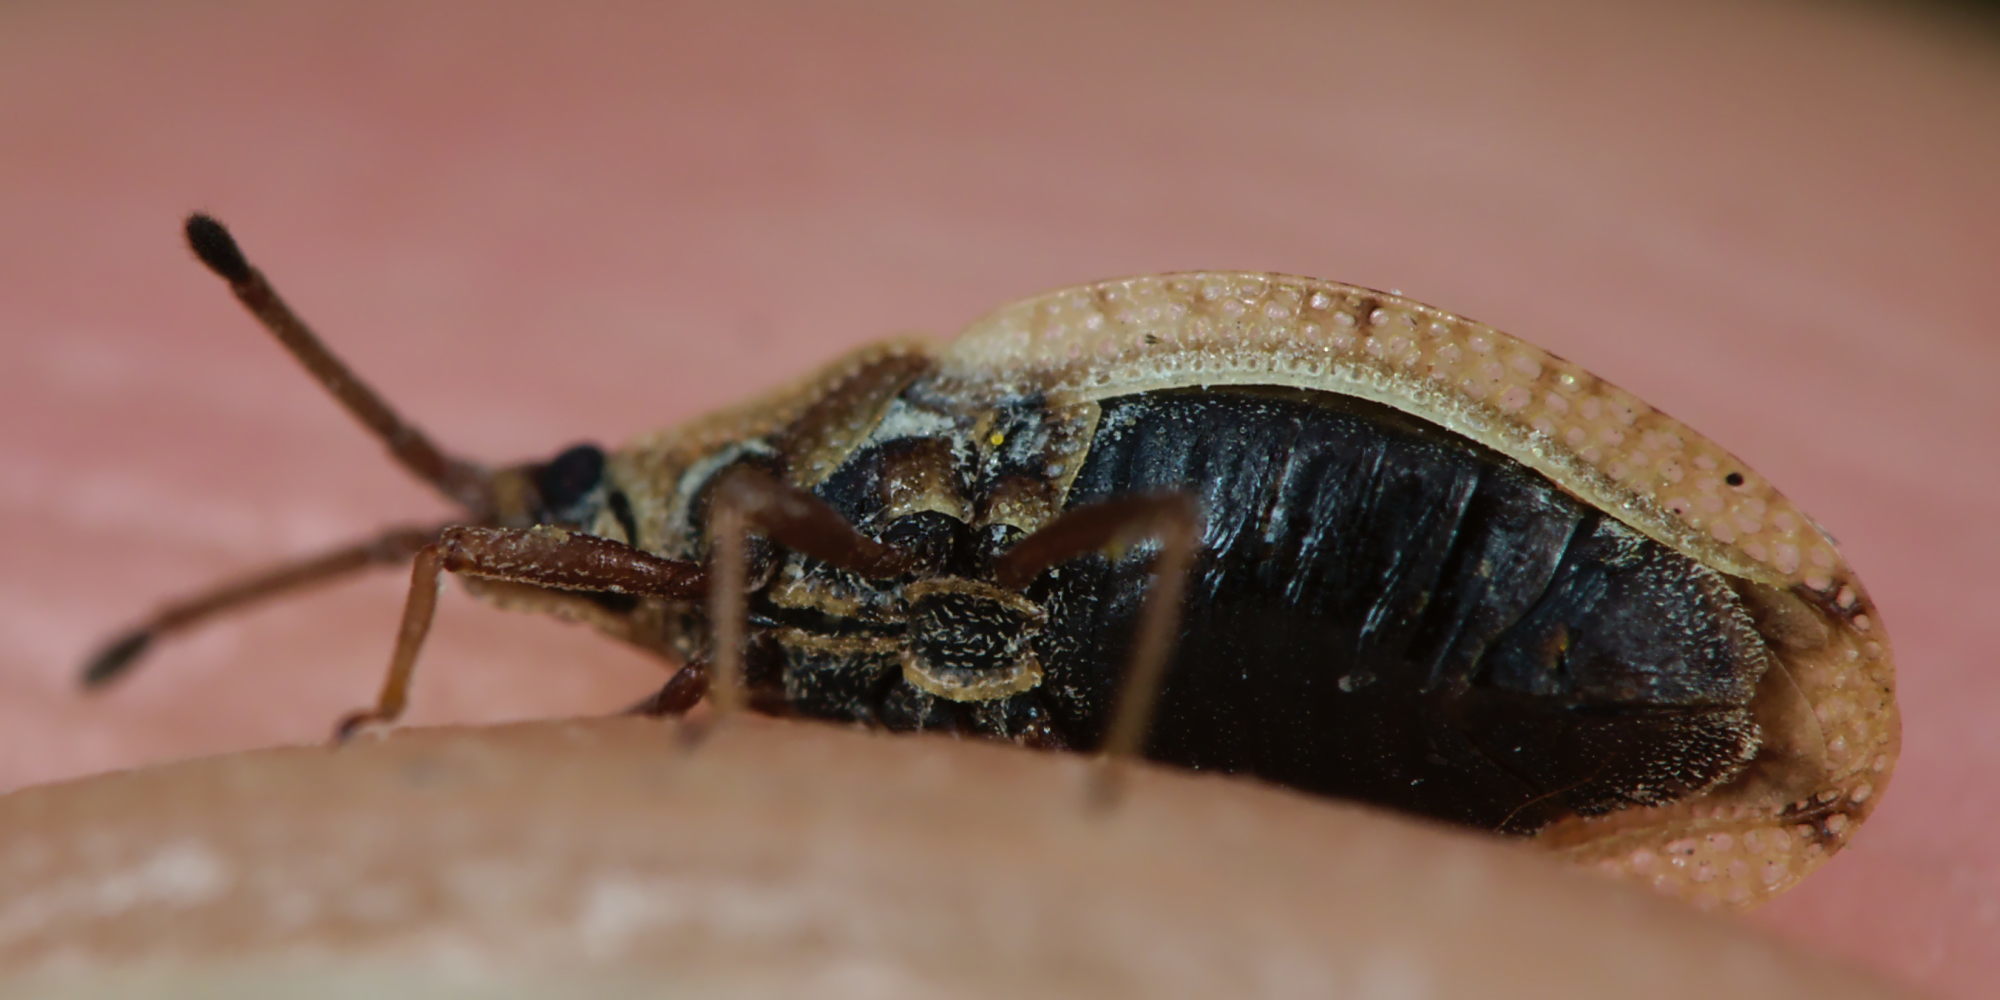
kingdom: Animalia
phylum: Arthropoda
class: Insecta
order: Hemiptera
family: Tingidae
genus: Catoplatus
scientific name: Catoplatus fabricii
